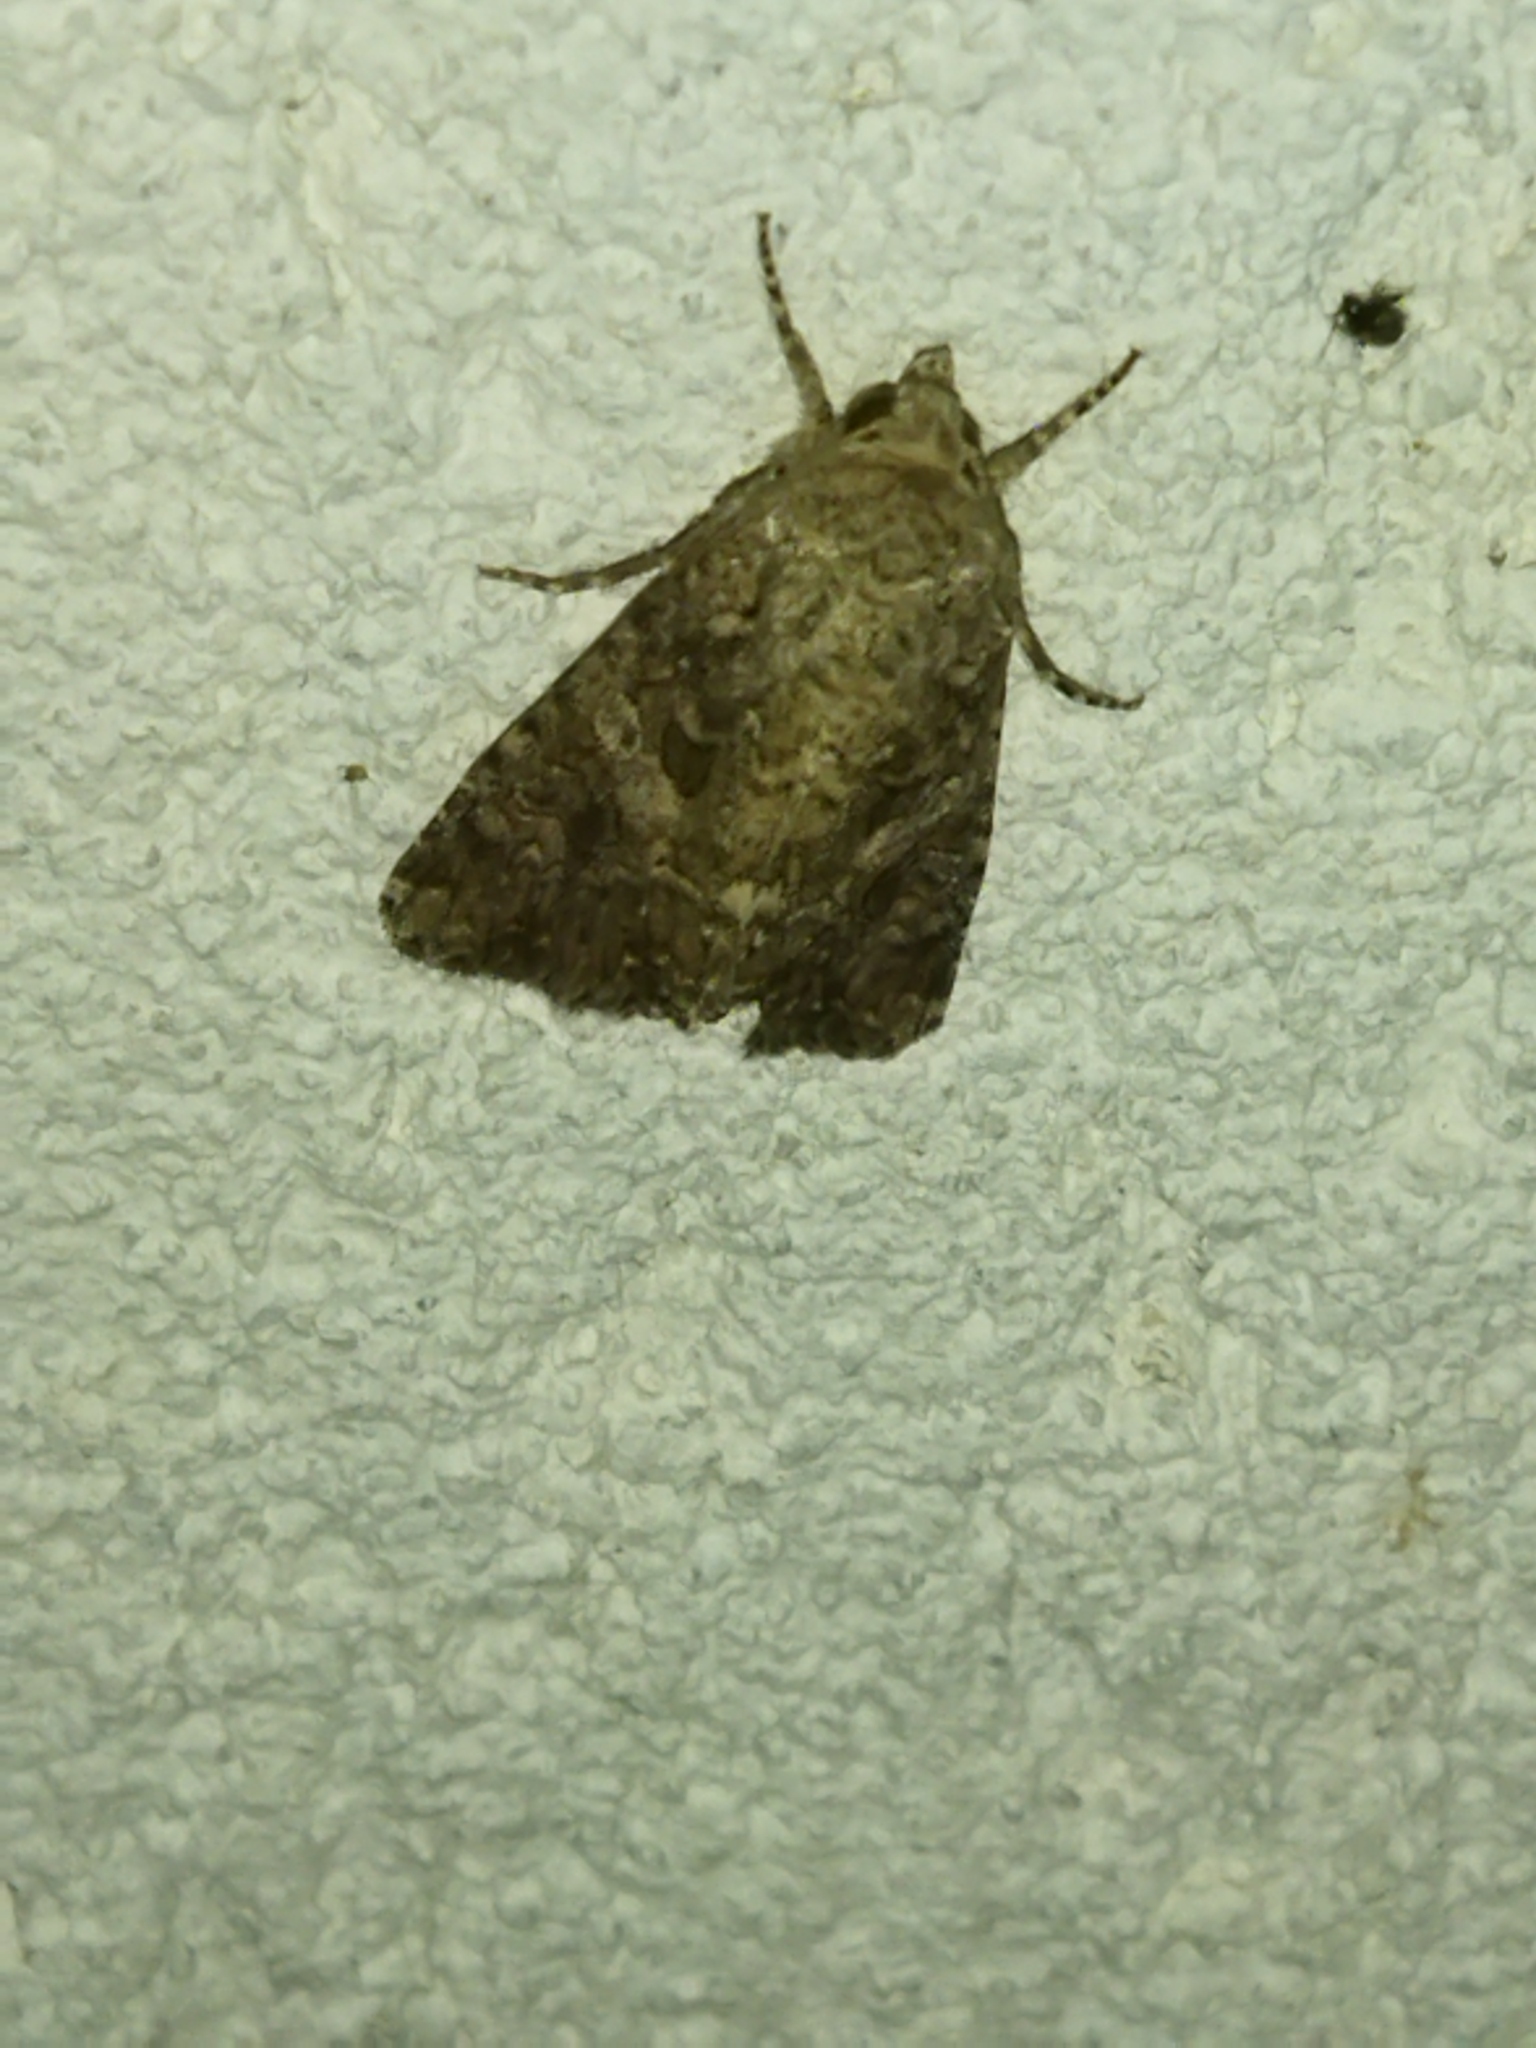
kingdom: Animalia
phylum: Arthropoda
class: Insecta
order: Lepidoptera
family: Noctuidae
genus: Anarta
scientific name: Anarta trifolii
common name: Clover cutworm moth
